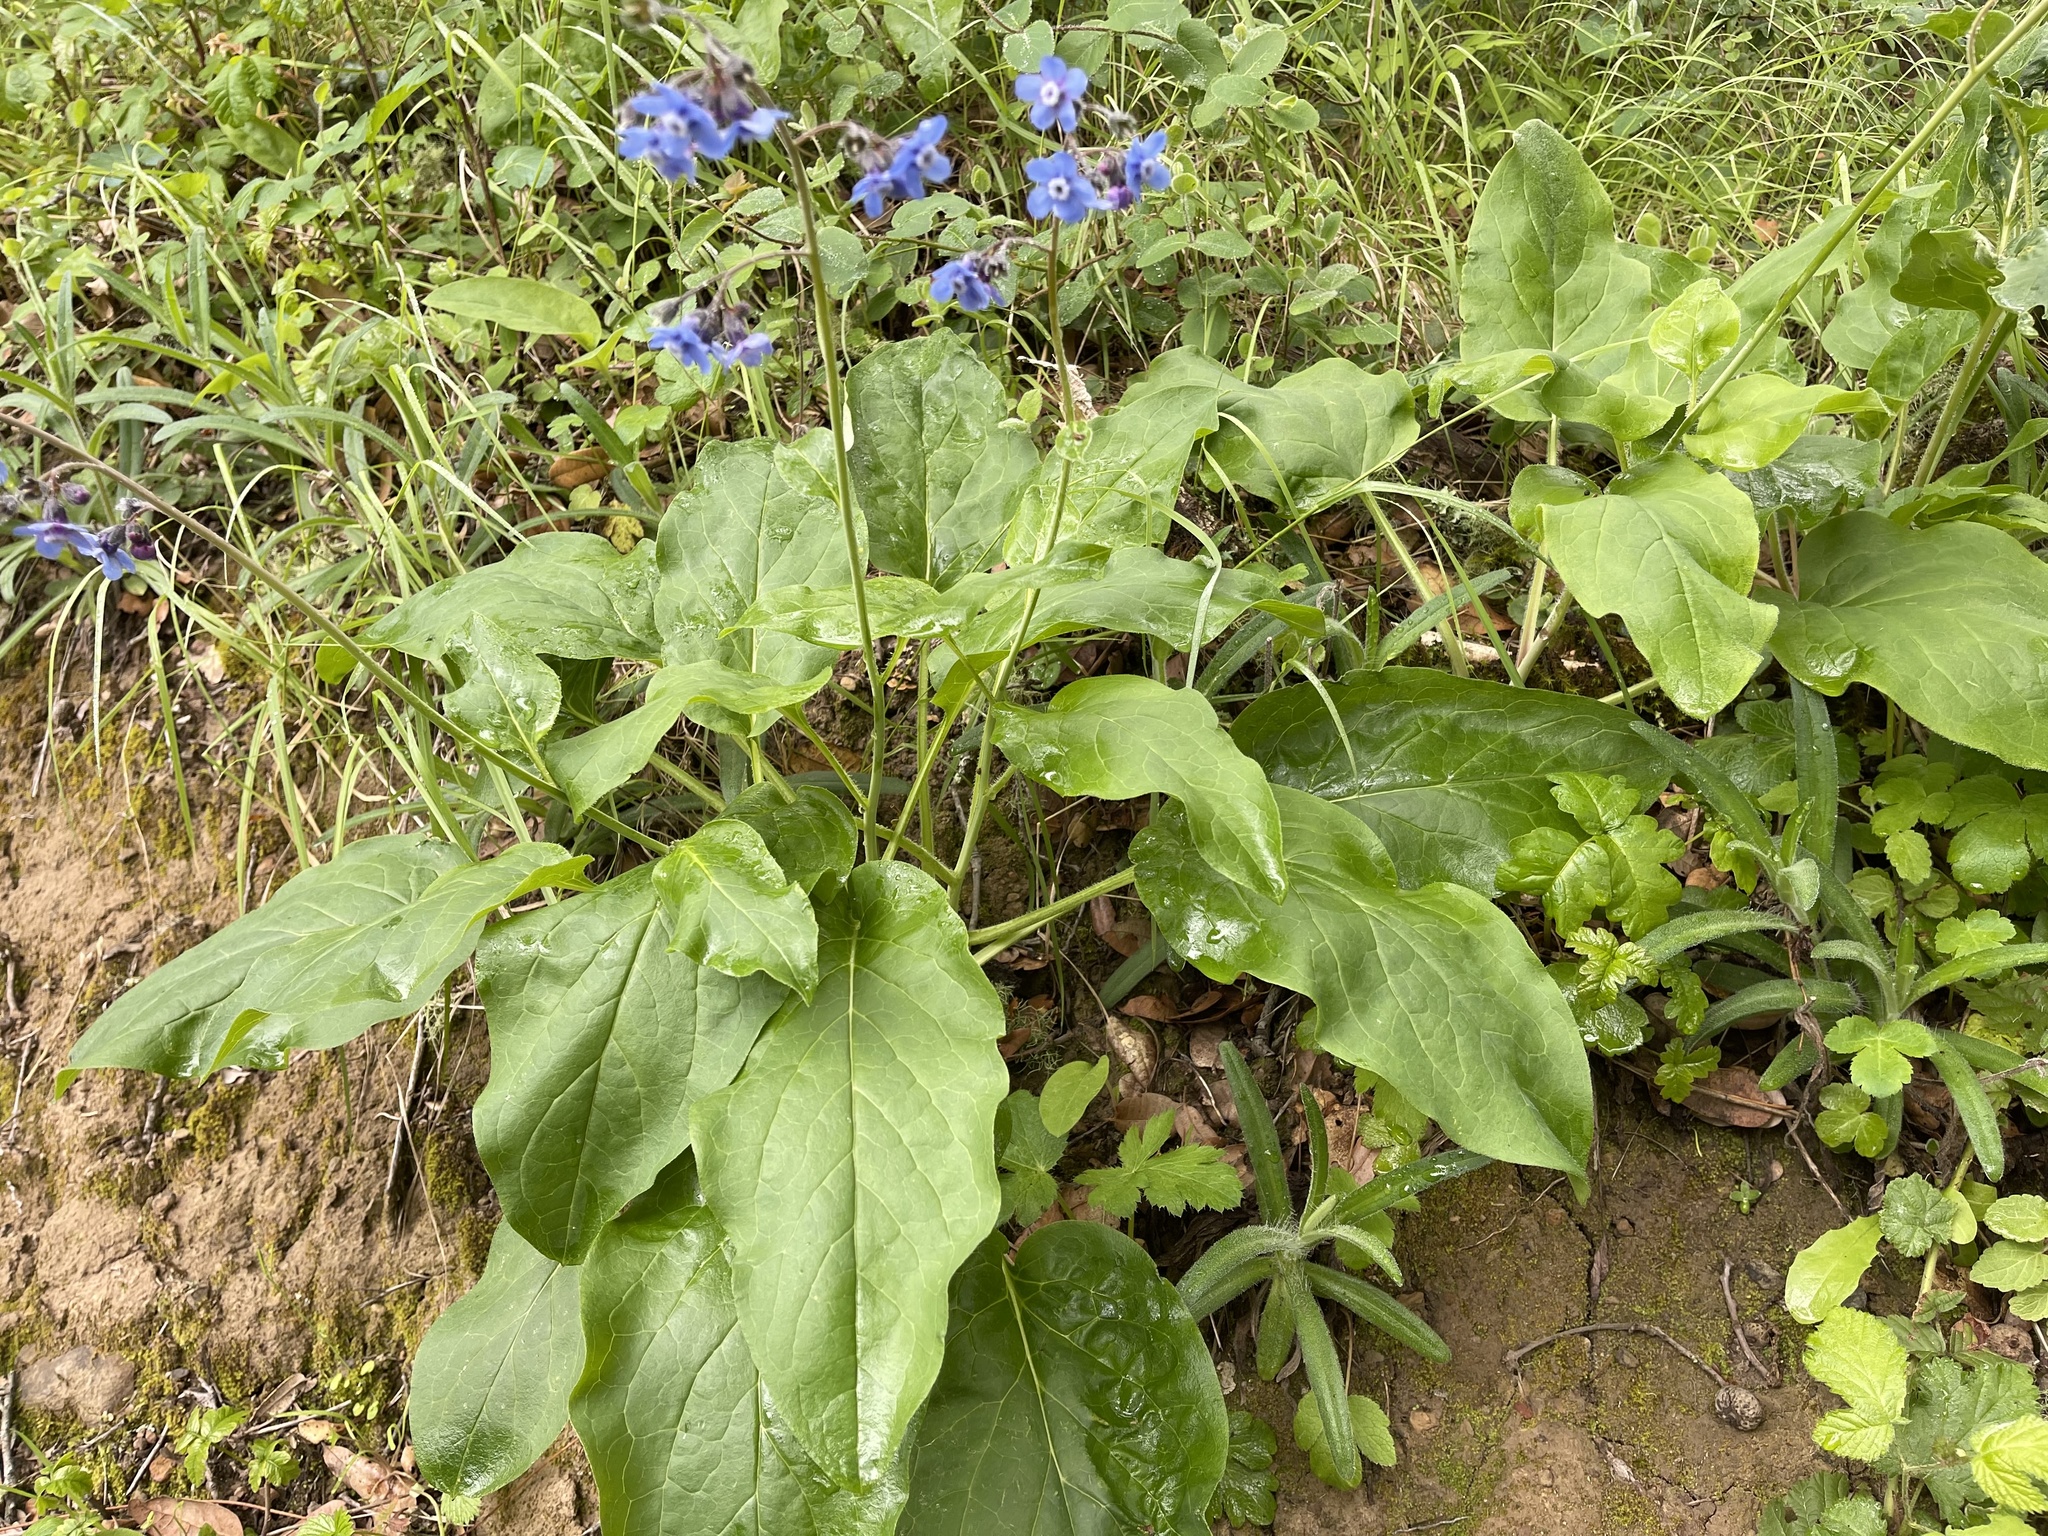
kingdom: Plantae
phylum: Tracheophyta
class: Magnoliopsida
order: Boraginales
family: Boraginaceae
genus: Adelinia
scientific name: Adelinia grande
